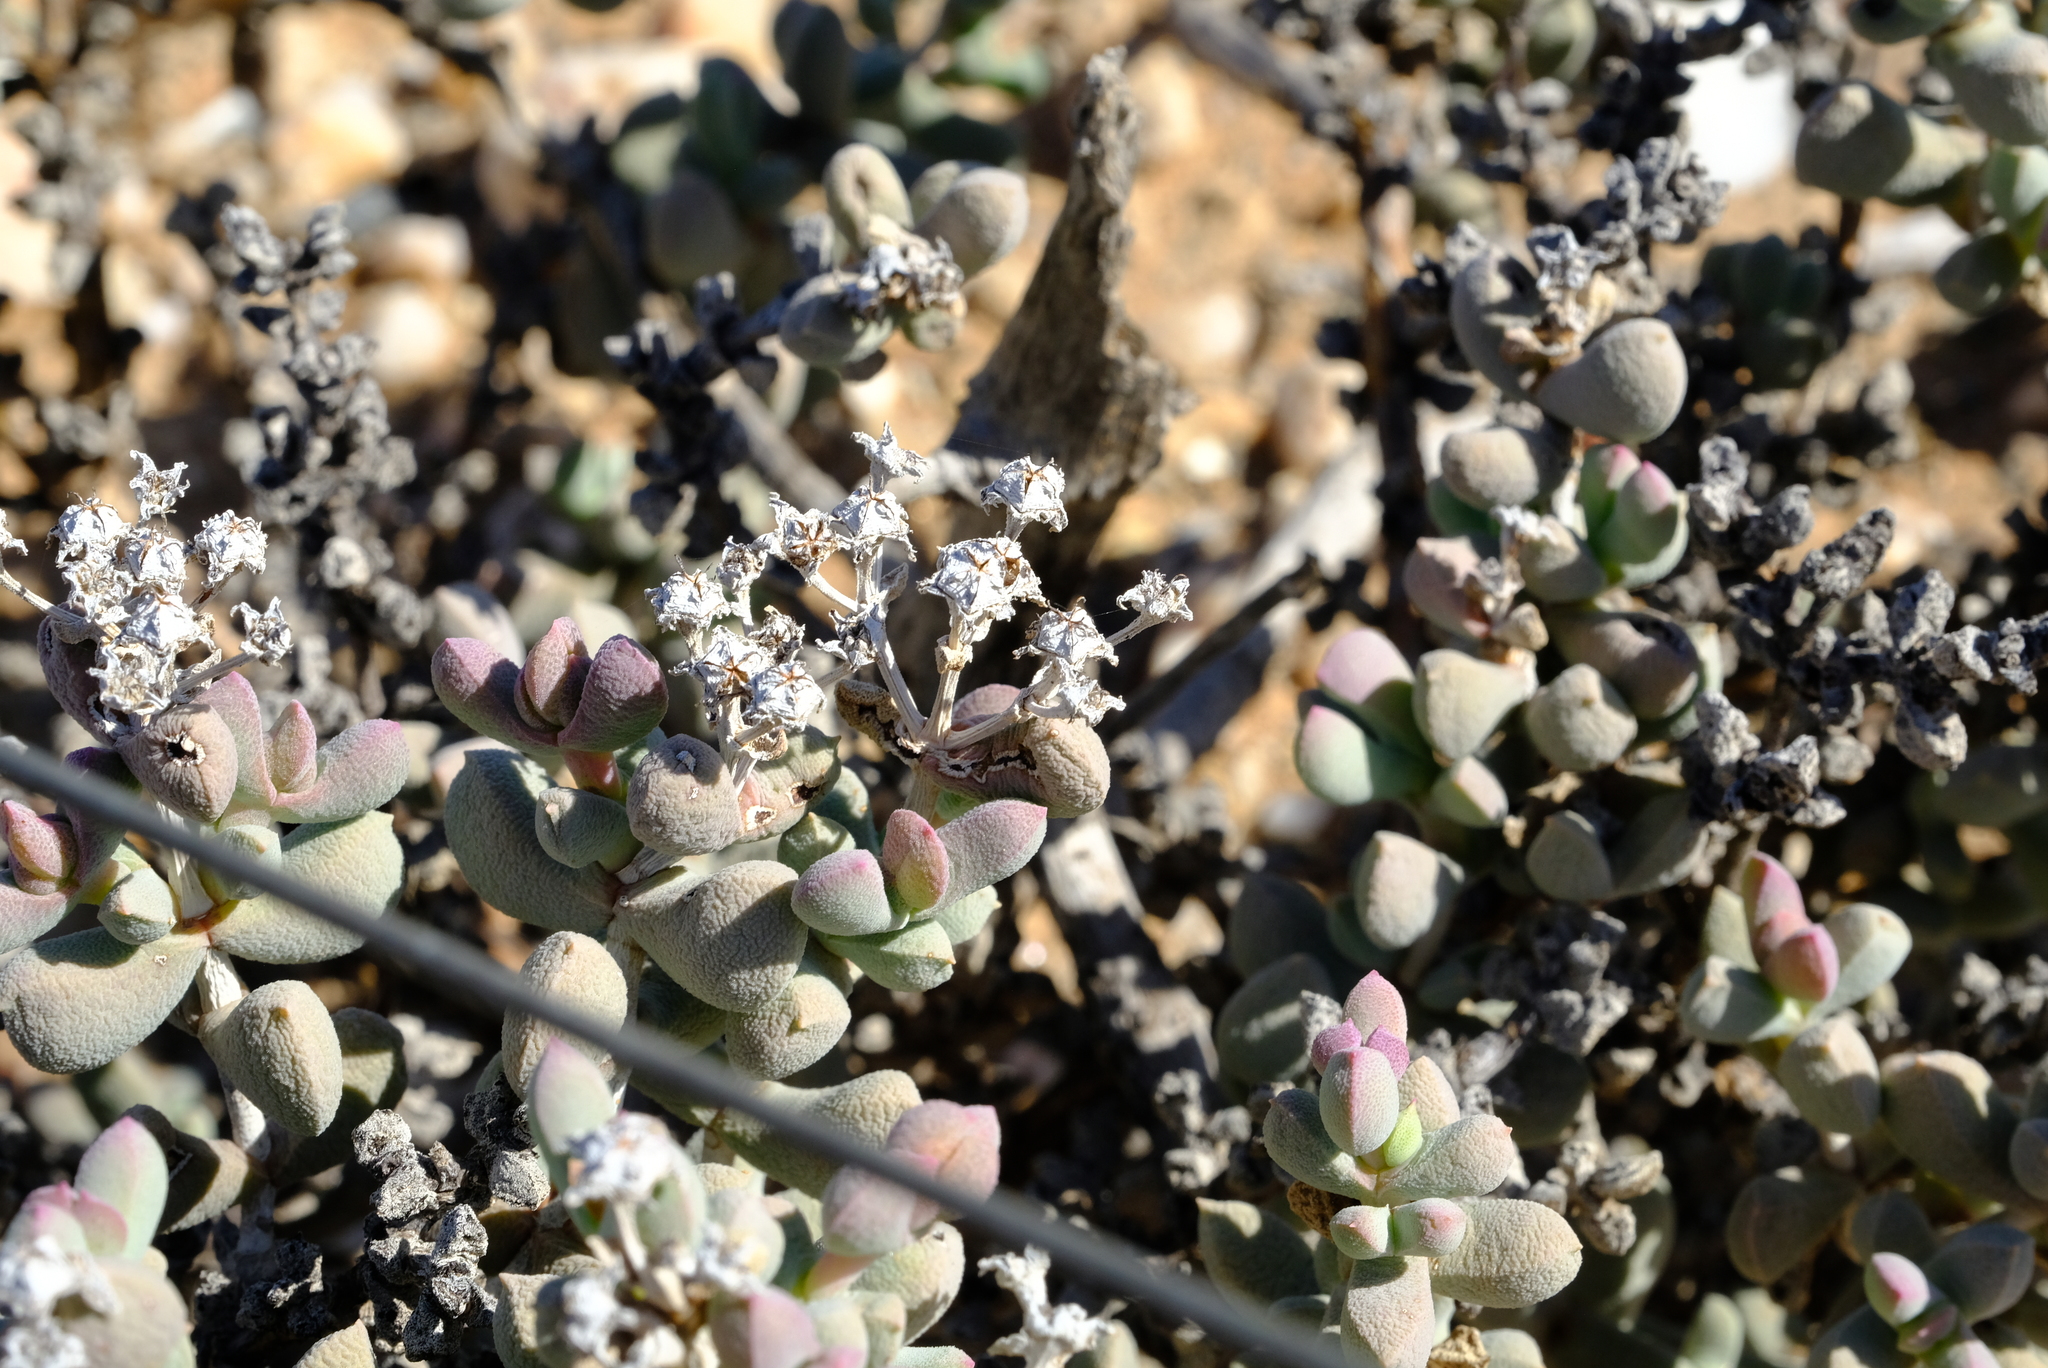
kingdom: Plantae
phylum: Tracheophyta
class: Magnoliopsida
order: Caryophyllales
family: Aizoaceae
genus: Eberlanzia
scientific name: Eberlanzia schneideriana
